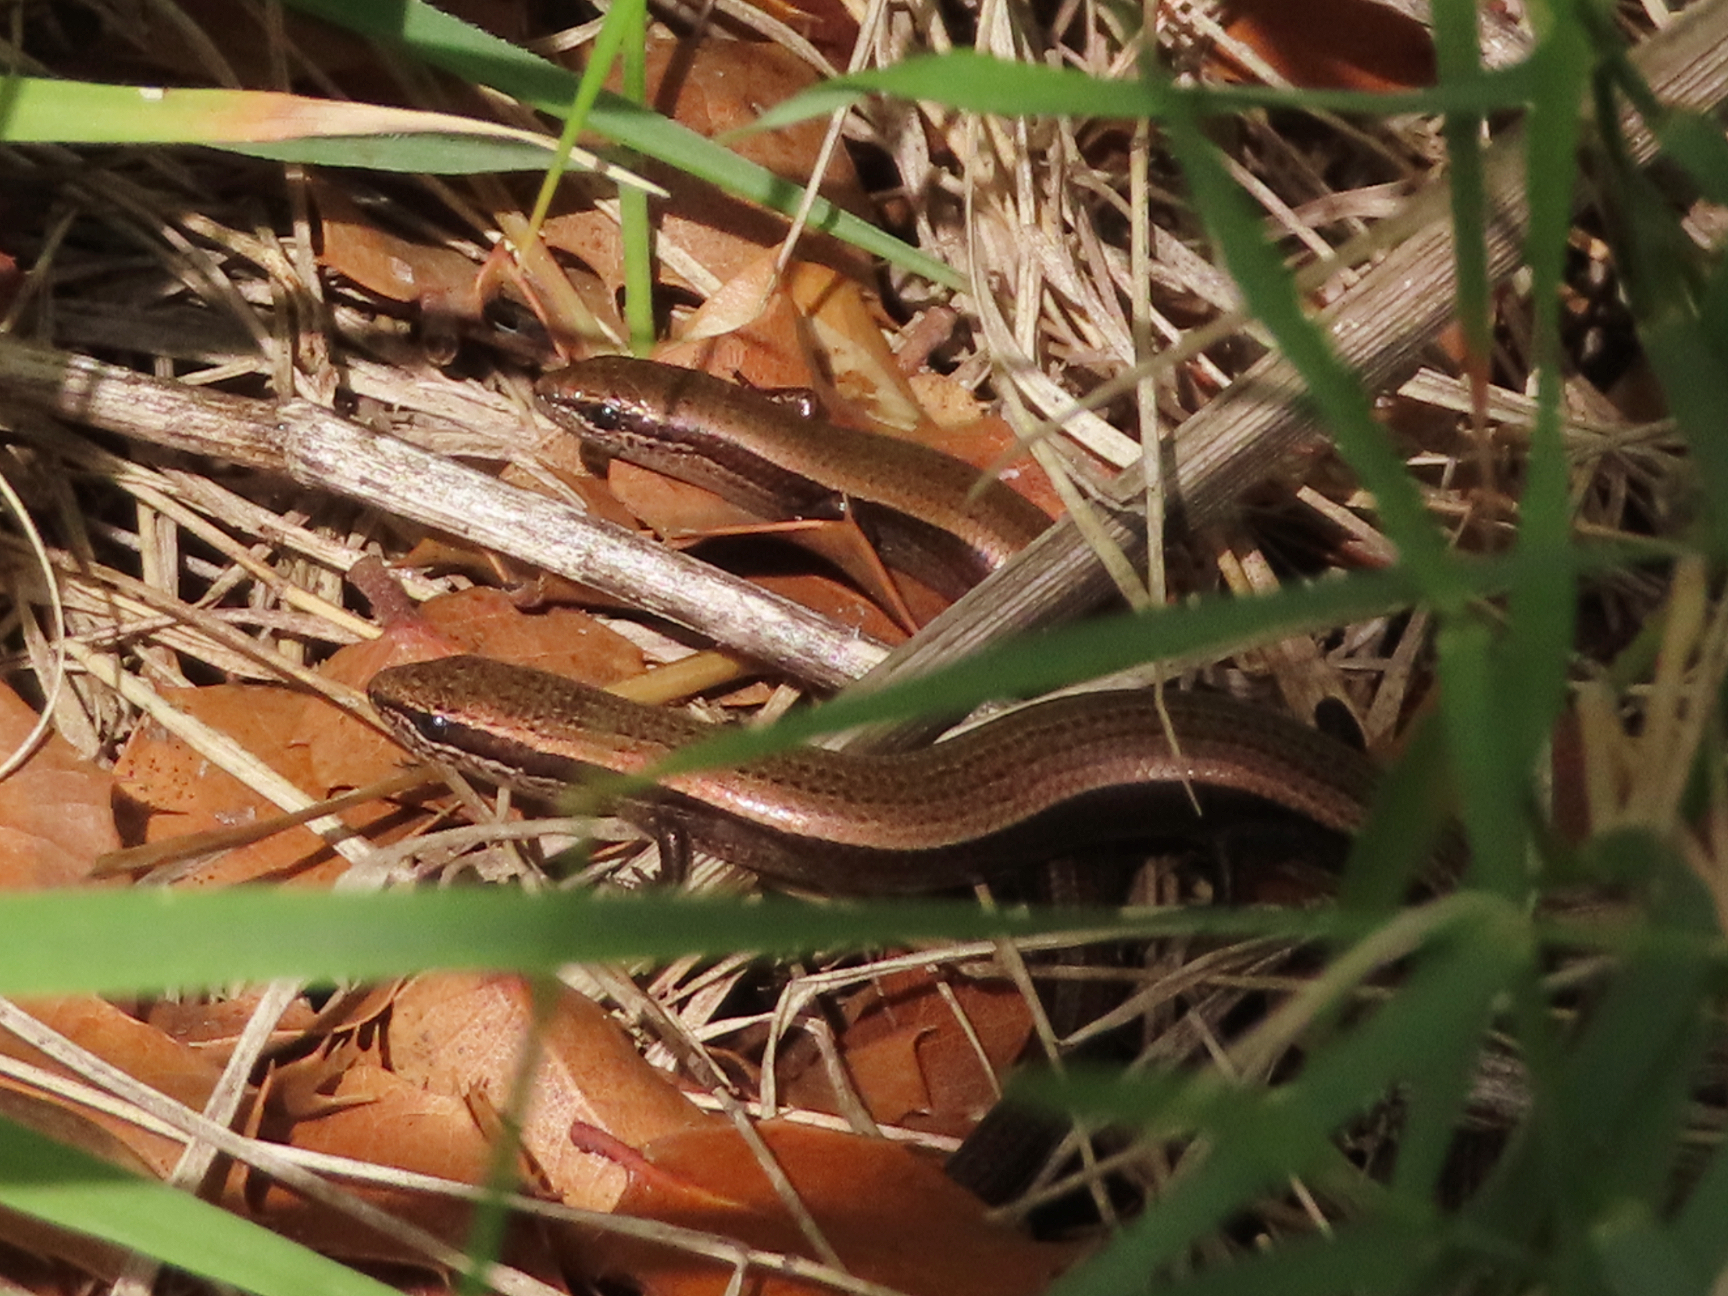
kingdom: Animalia
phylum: Chordata
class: Squamata
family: Scincidae
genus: Ablepharus
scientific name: Ablepharus kitaibelii
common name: Juniper skink
